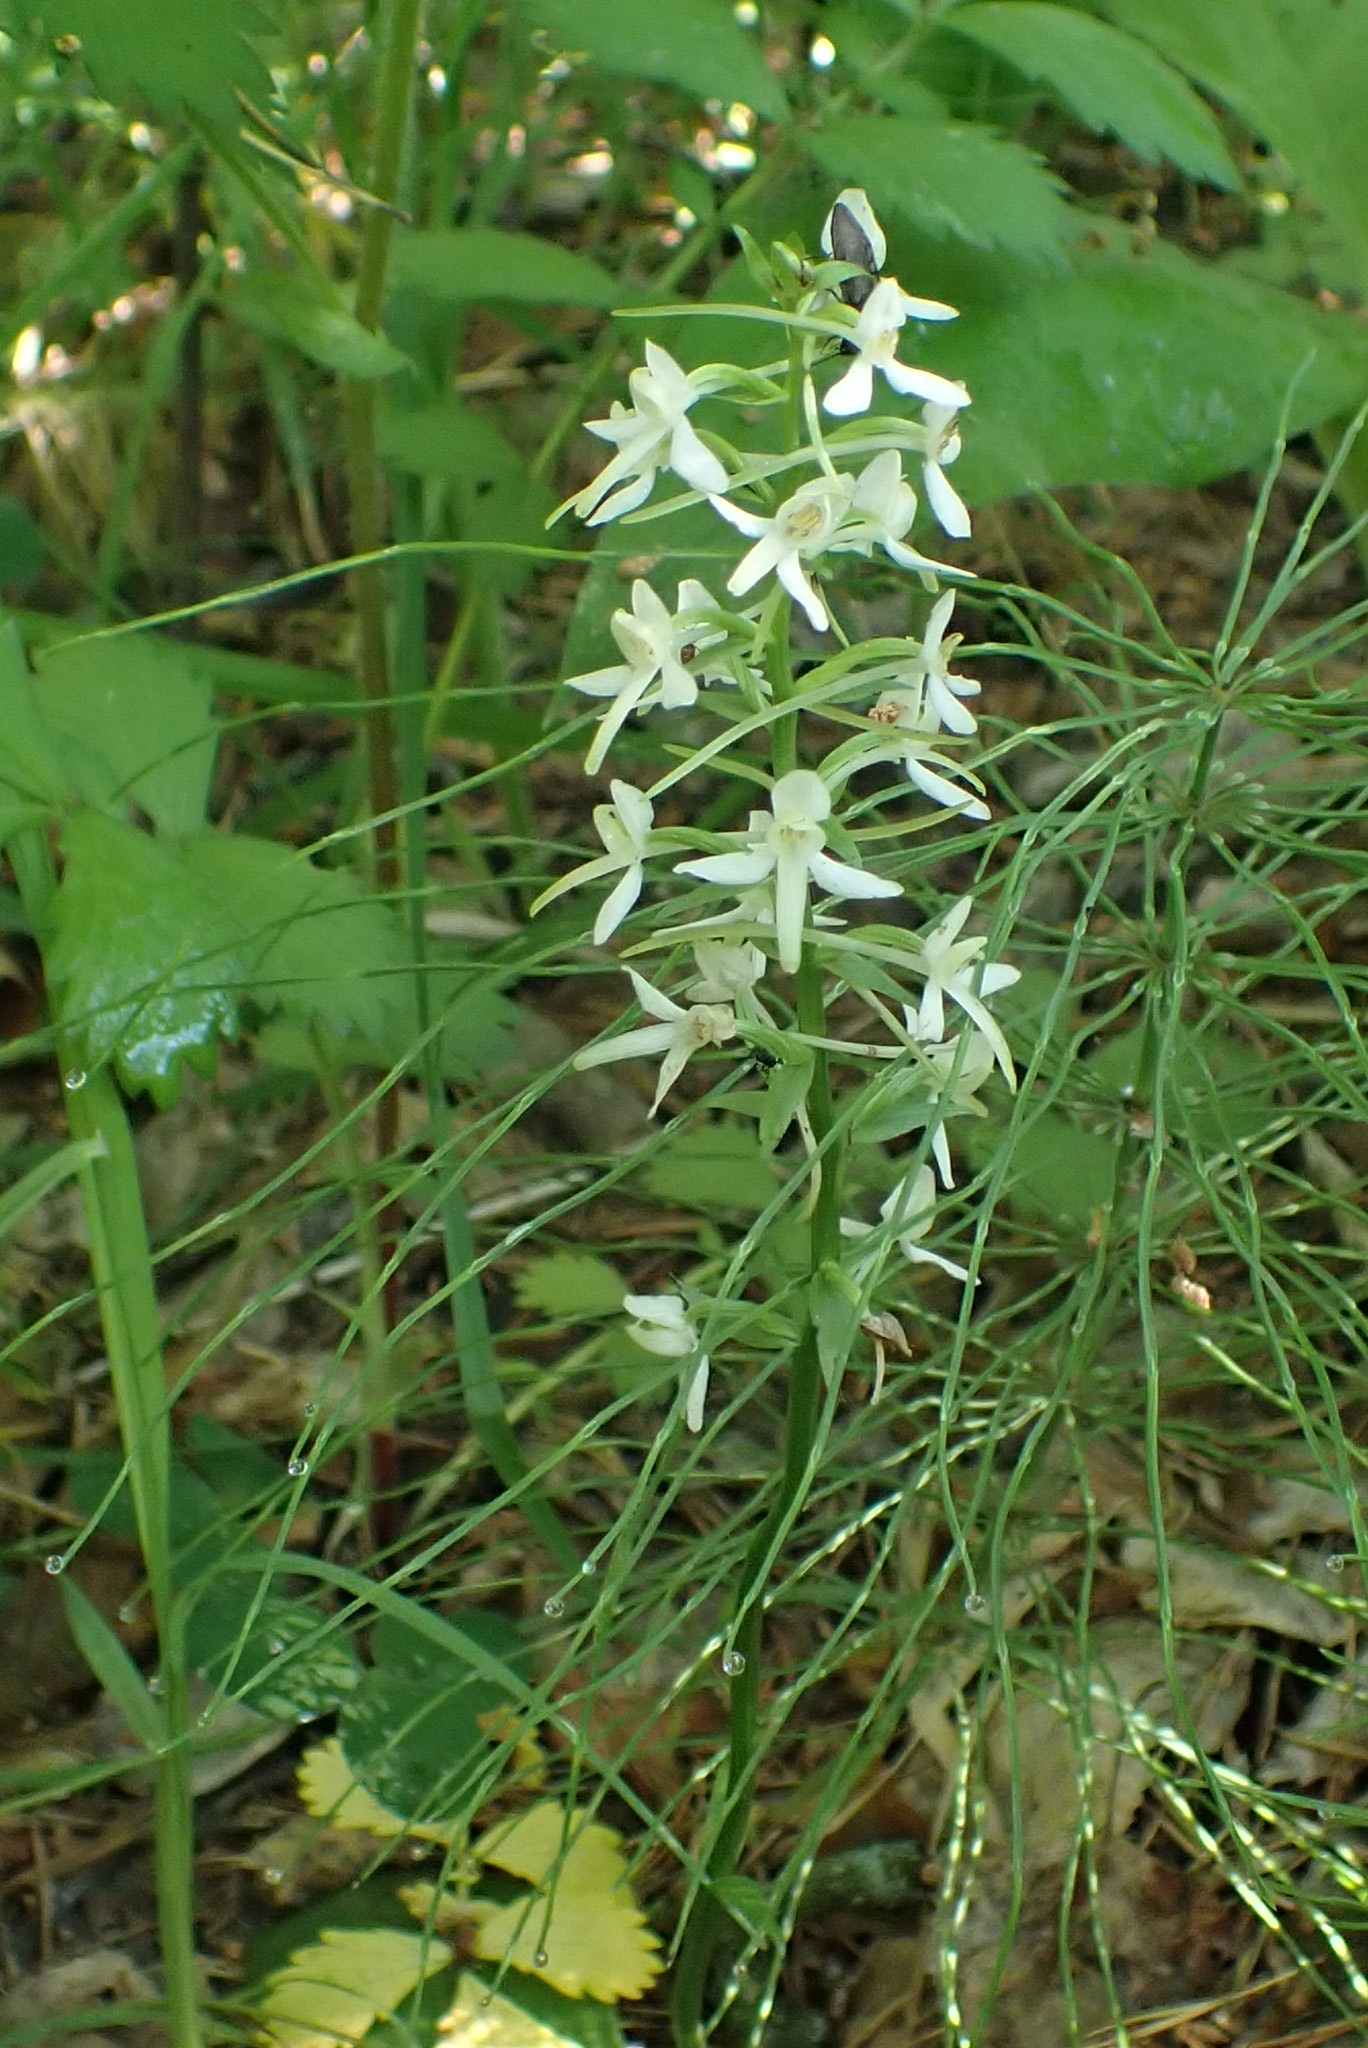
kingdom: Plantae
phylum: Tracheophyta
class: Liliopsida
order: Asparagales
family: Orchidaceae
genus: Platanthera
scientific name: Platanthera bifolia
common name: Lesser butterfly-orchid
